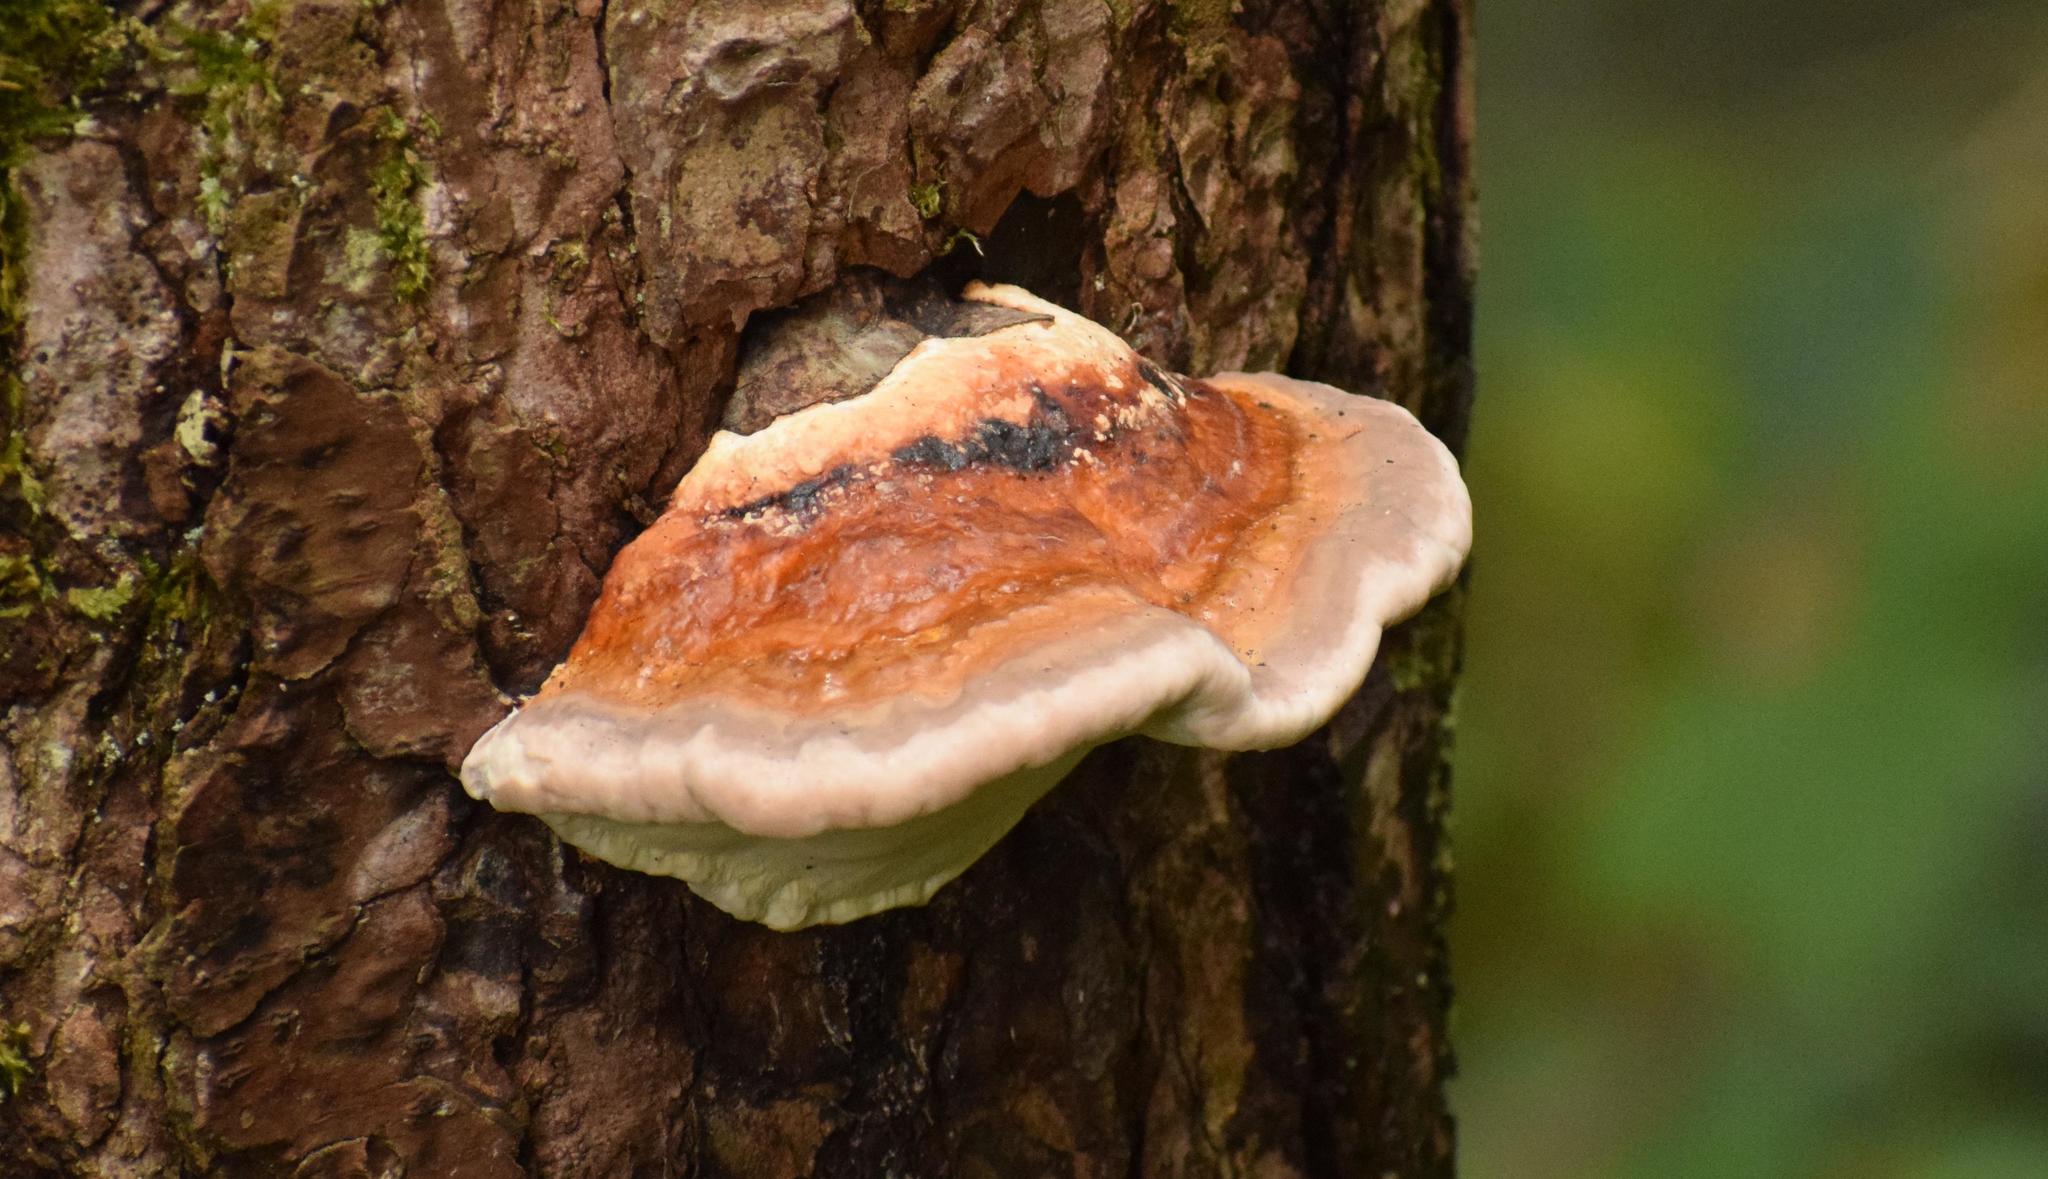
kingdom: Fungi
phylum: Basidiomycota
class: Agaricomycetes
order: Polyporales
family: Fomitopsidaceae
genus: Fomitopsis
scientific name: Fomitopsis pinicola
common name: Red-belted bracket
